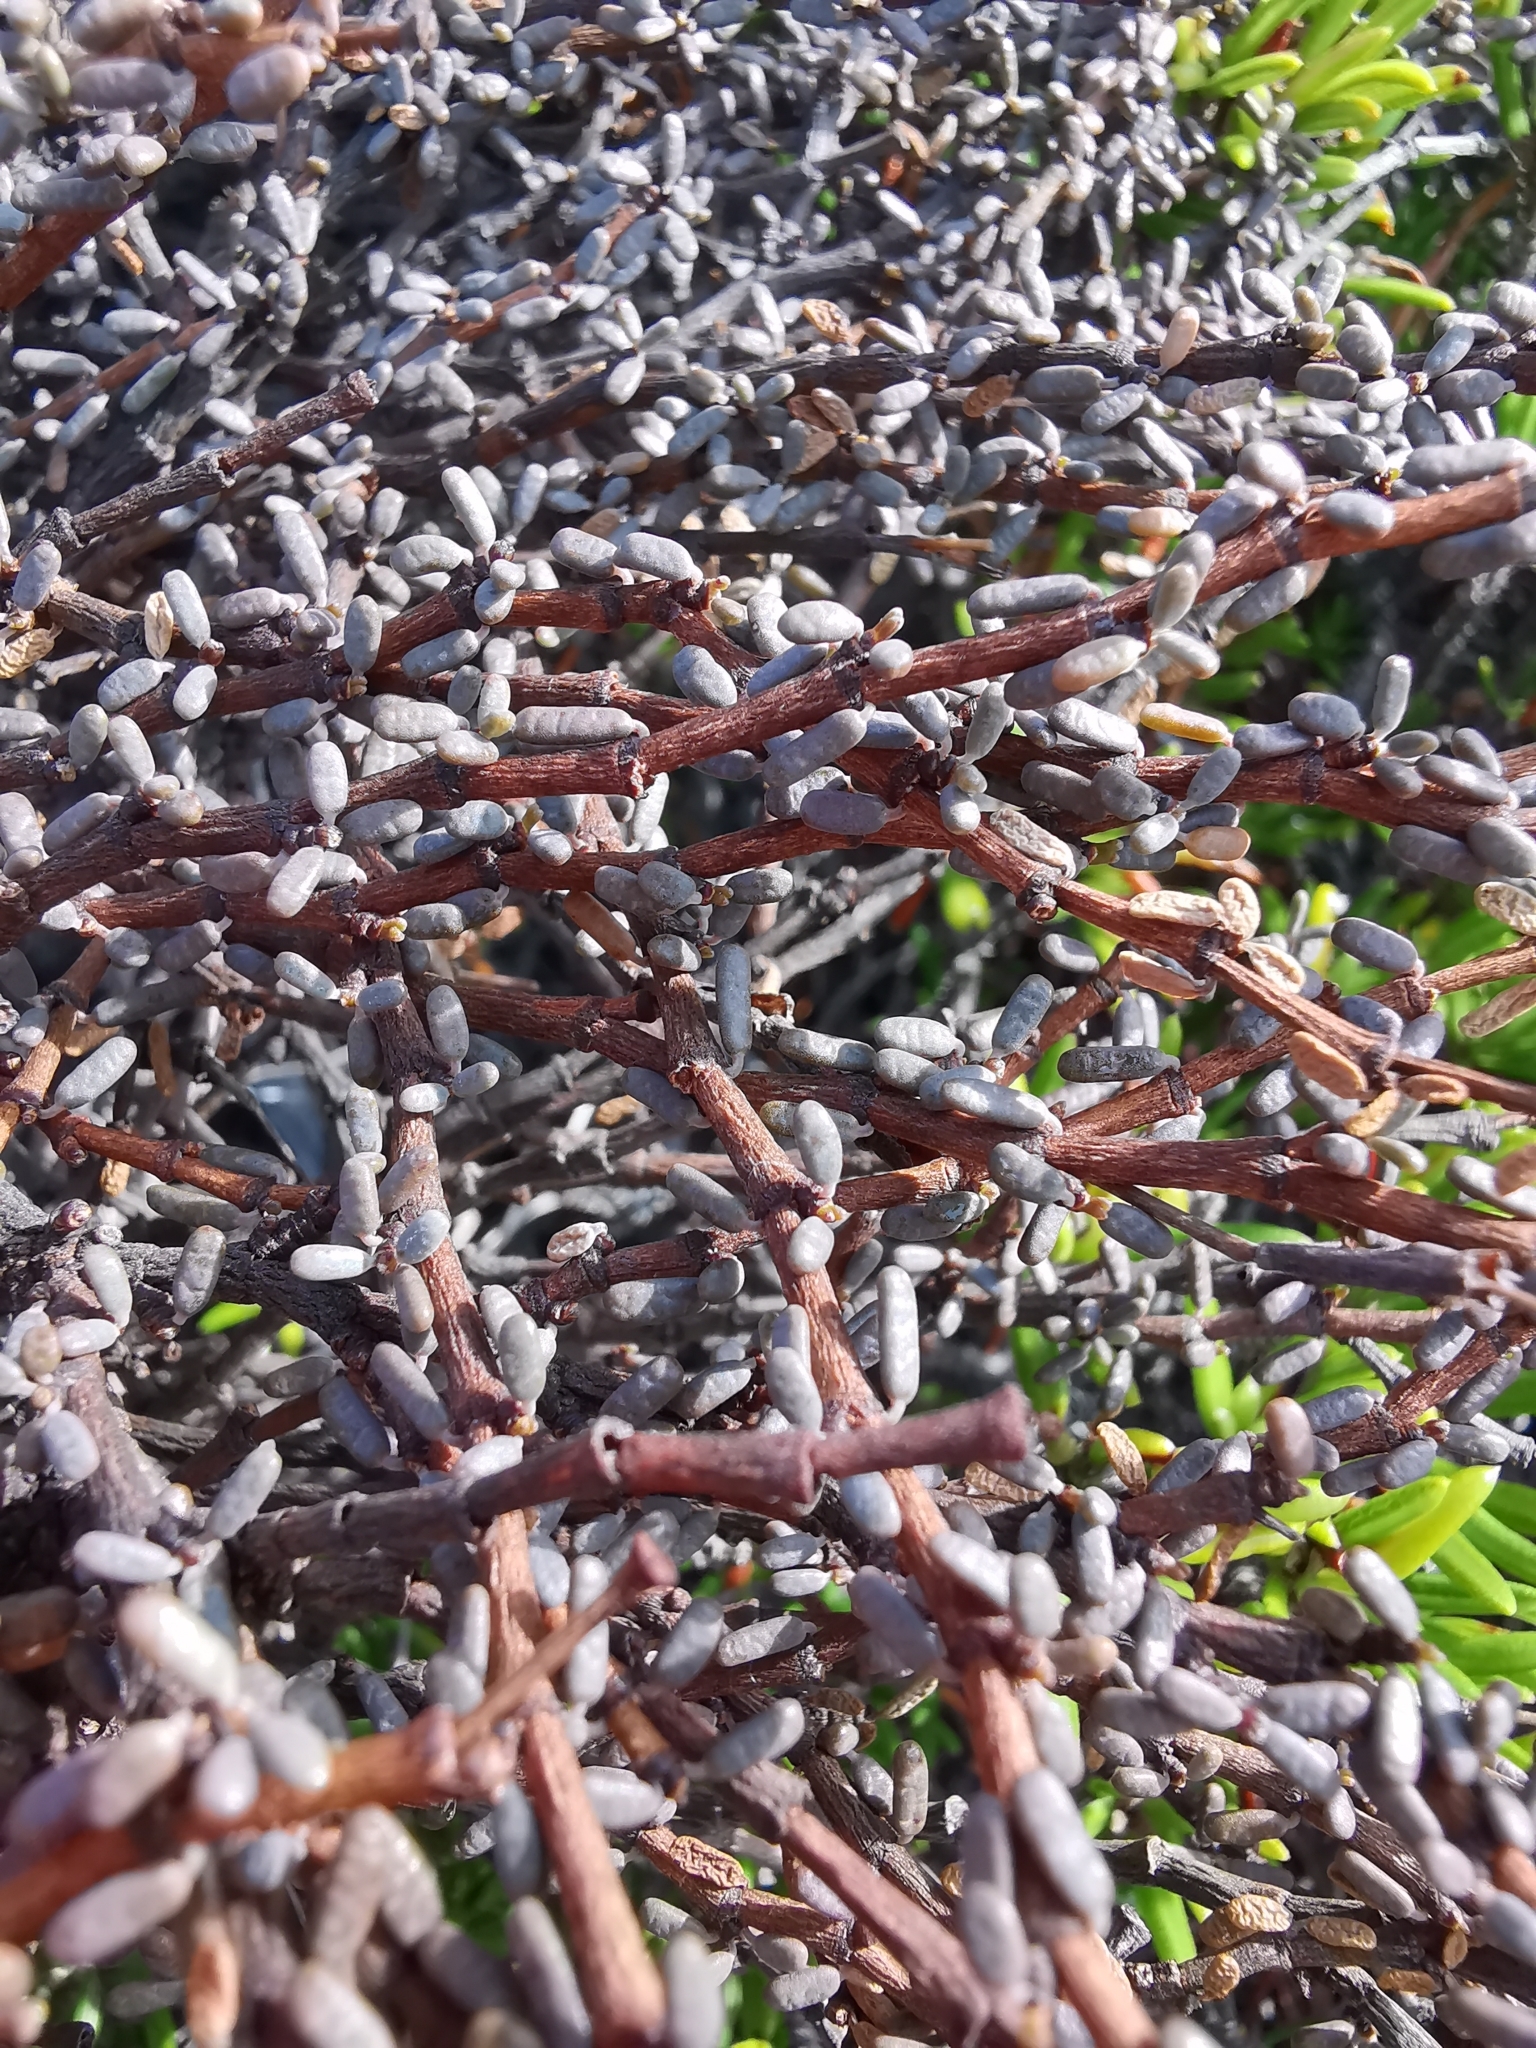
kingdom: Plantae
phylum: Tracheophyta
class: Magnoliopsida
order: Malpighiales
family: Euphorbiaceae
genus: Euphorbia
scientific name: Euphorbia vaginulata
